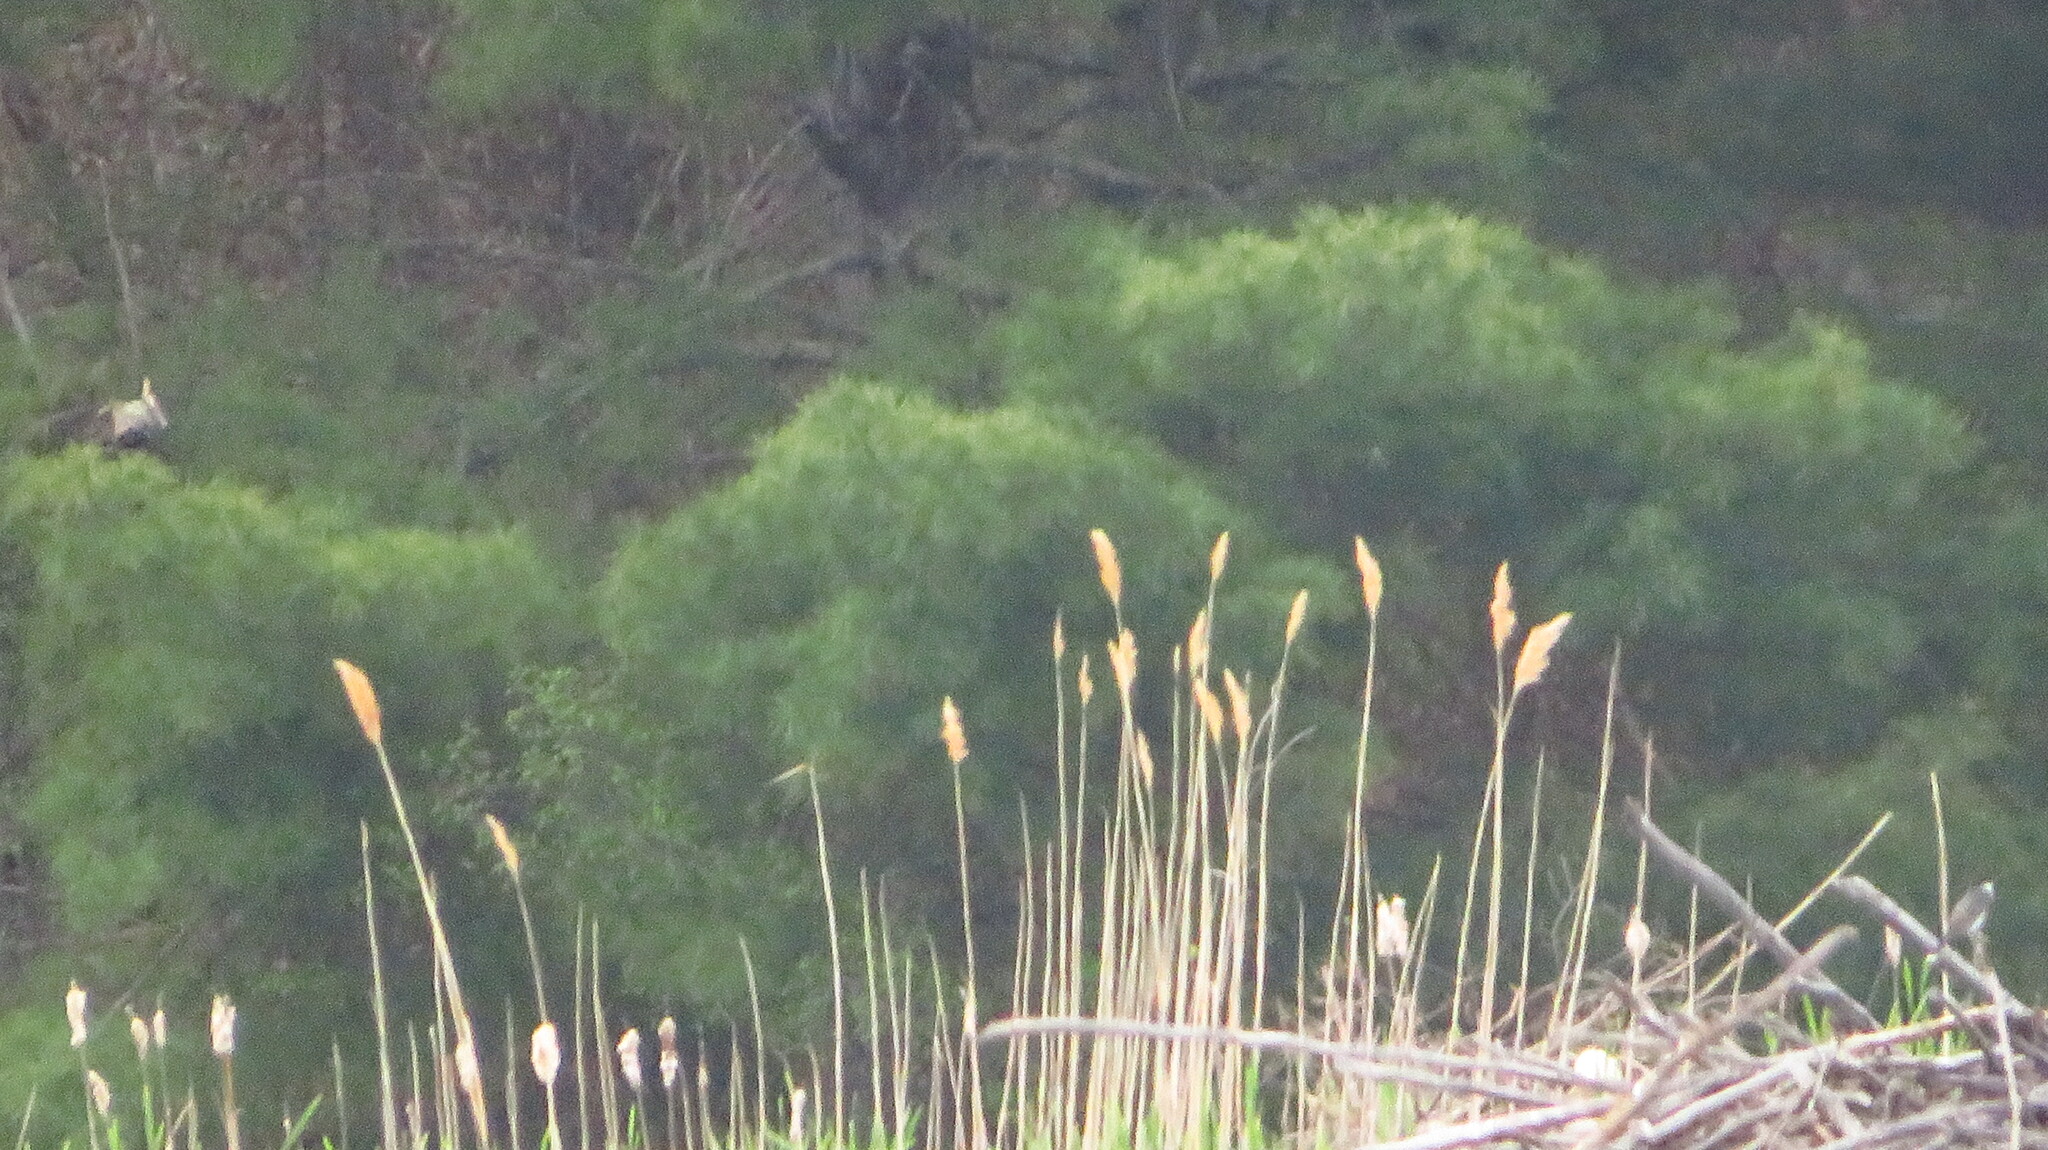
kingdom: Plantae
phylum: Tracheophyta
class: Liliopsida
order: Poales
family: Poaceae
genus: Phragmites
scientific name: Phragmites australis
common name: Common reed
